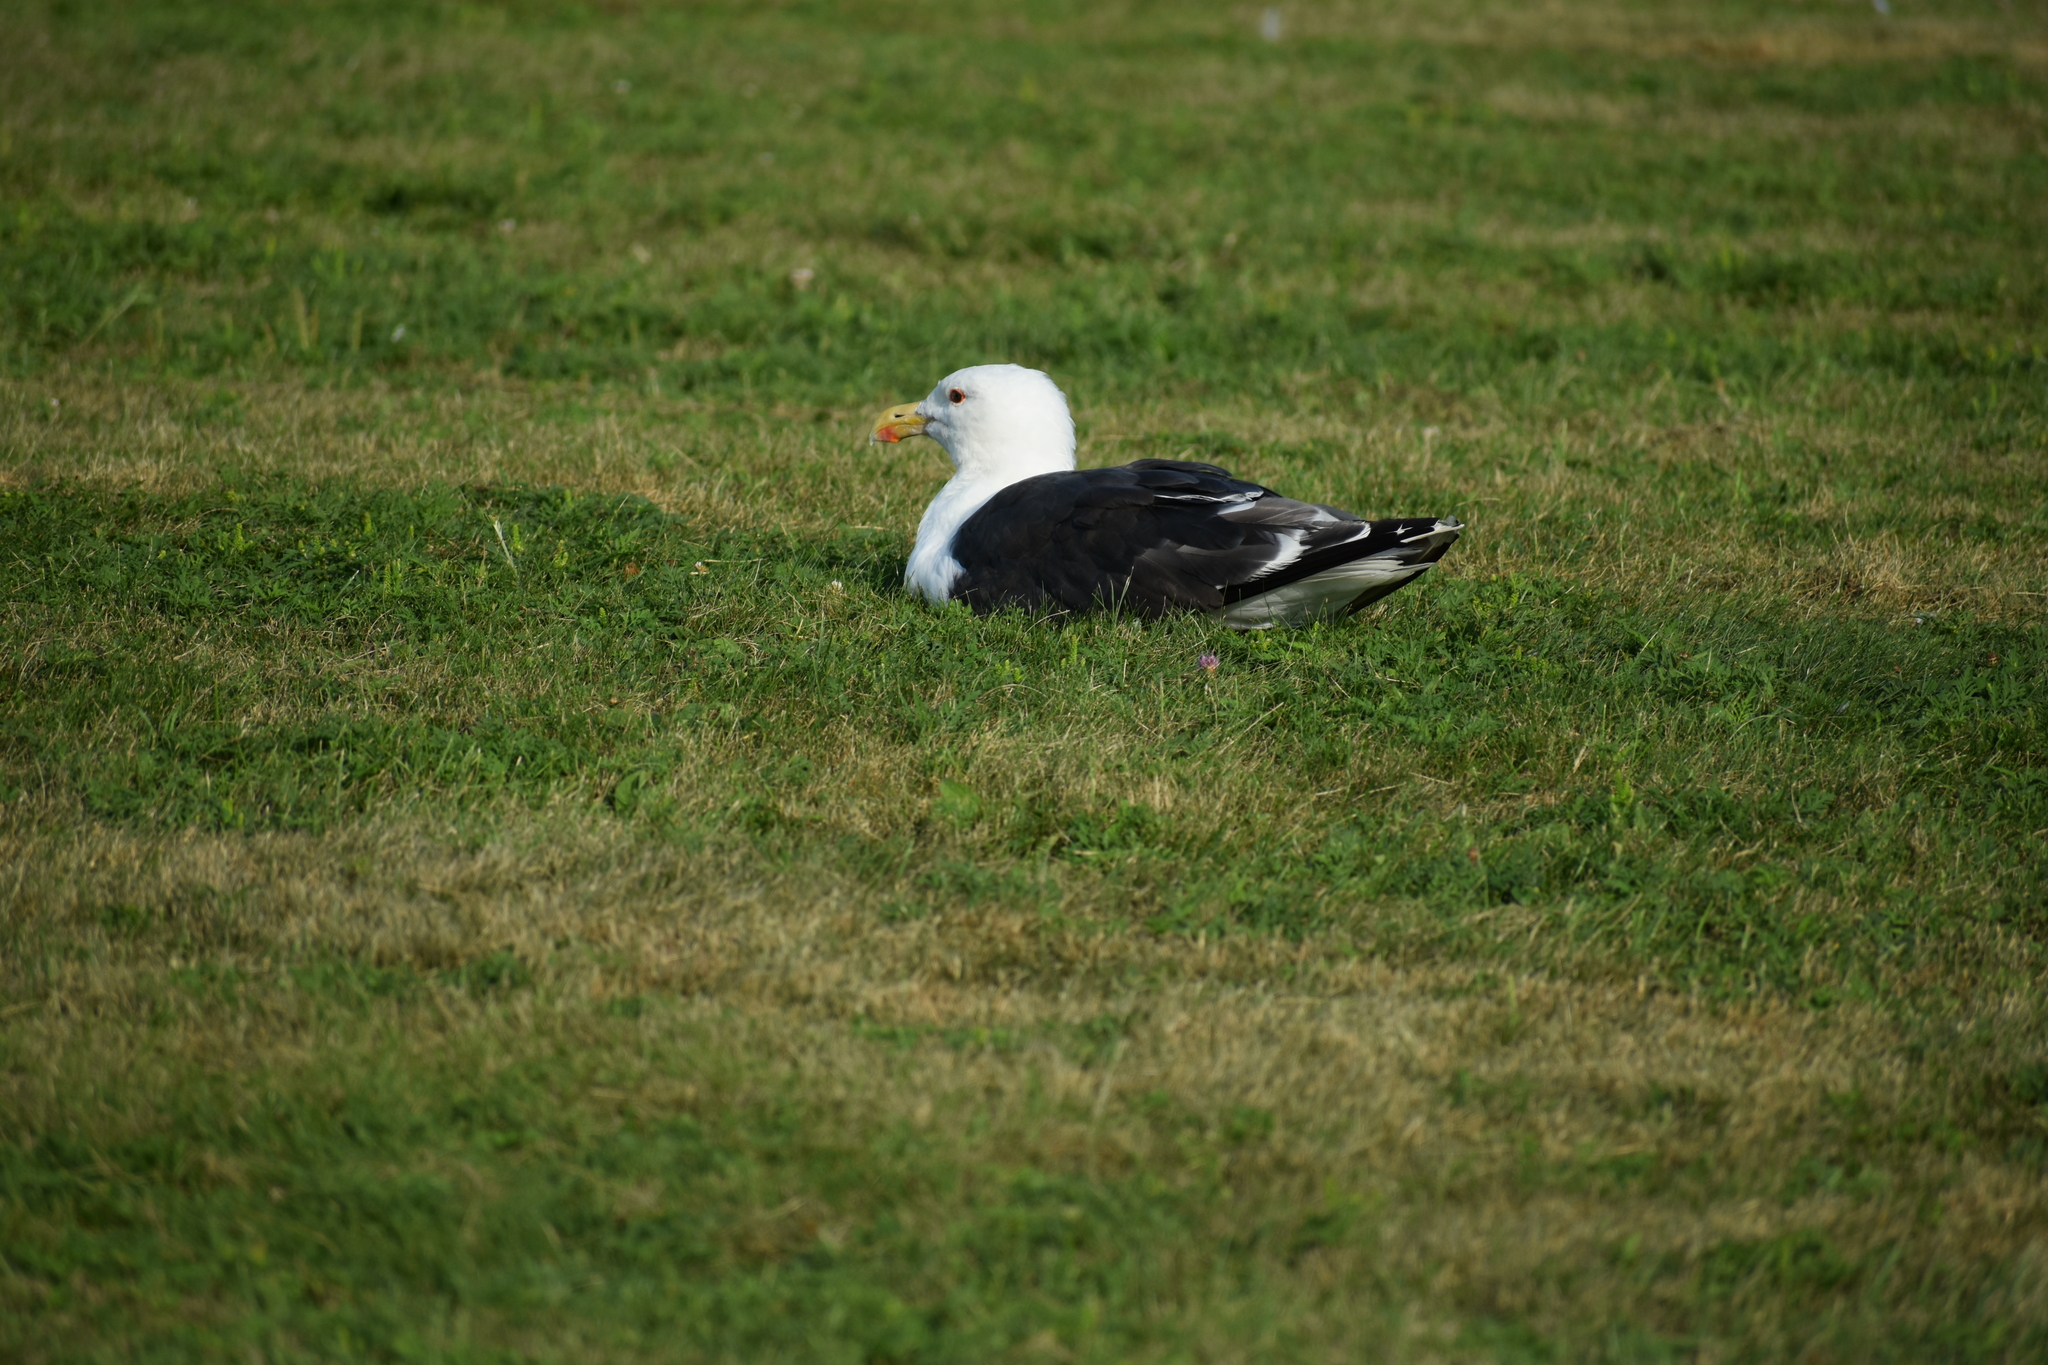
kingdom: Animalia
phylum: Chordata
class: Aves
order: Charadriiformes
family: Laridae
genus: Larus
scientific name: Larus marinus
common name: Great black-backed gull
